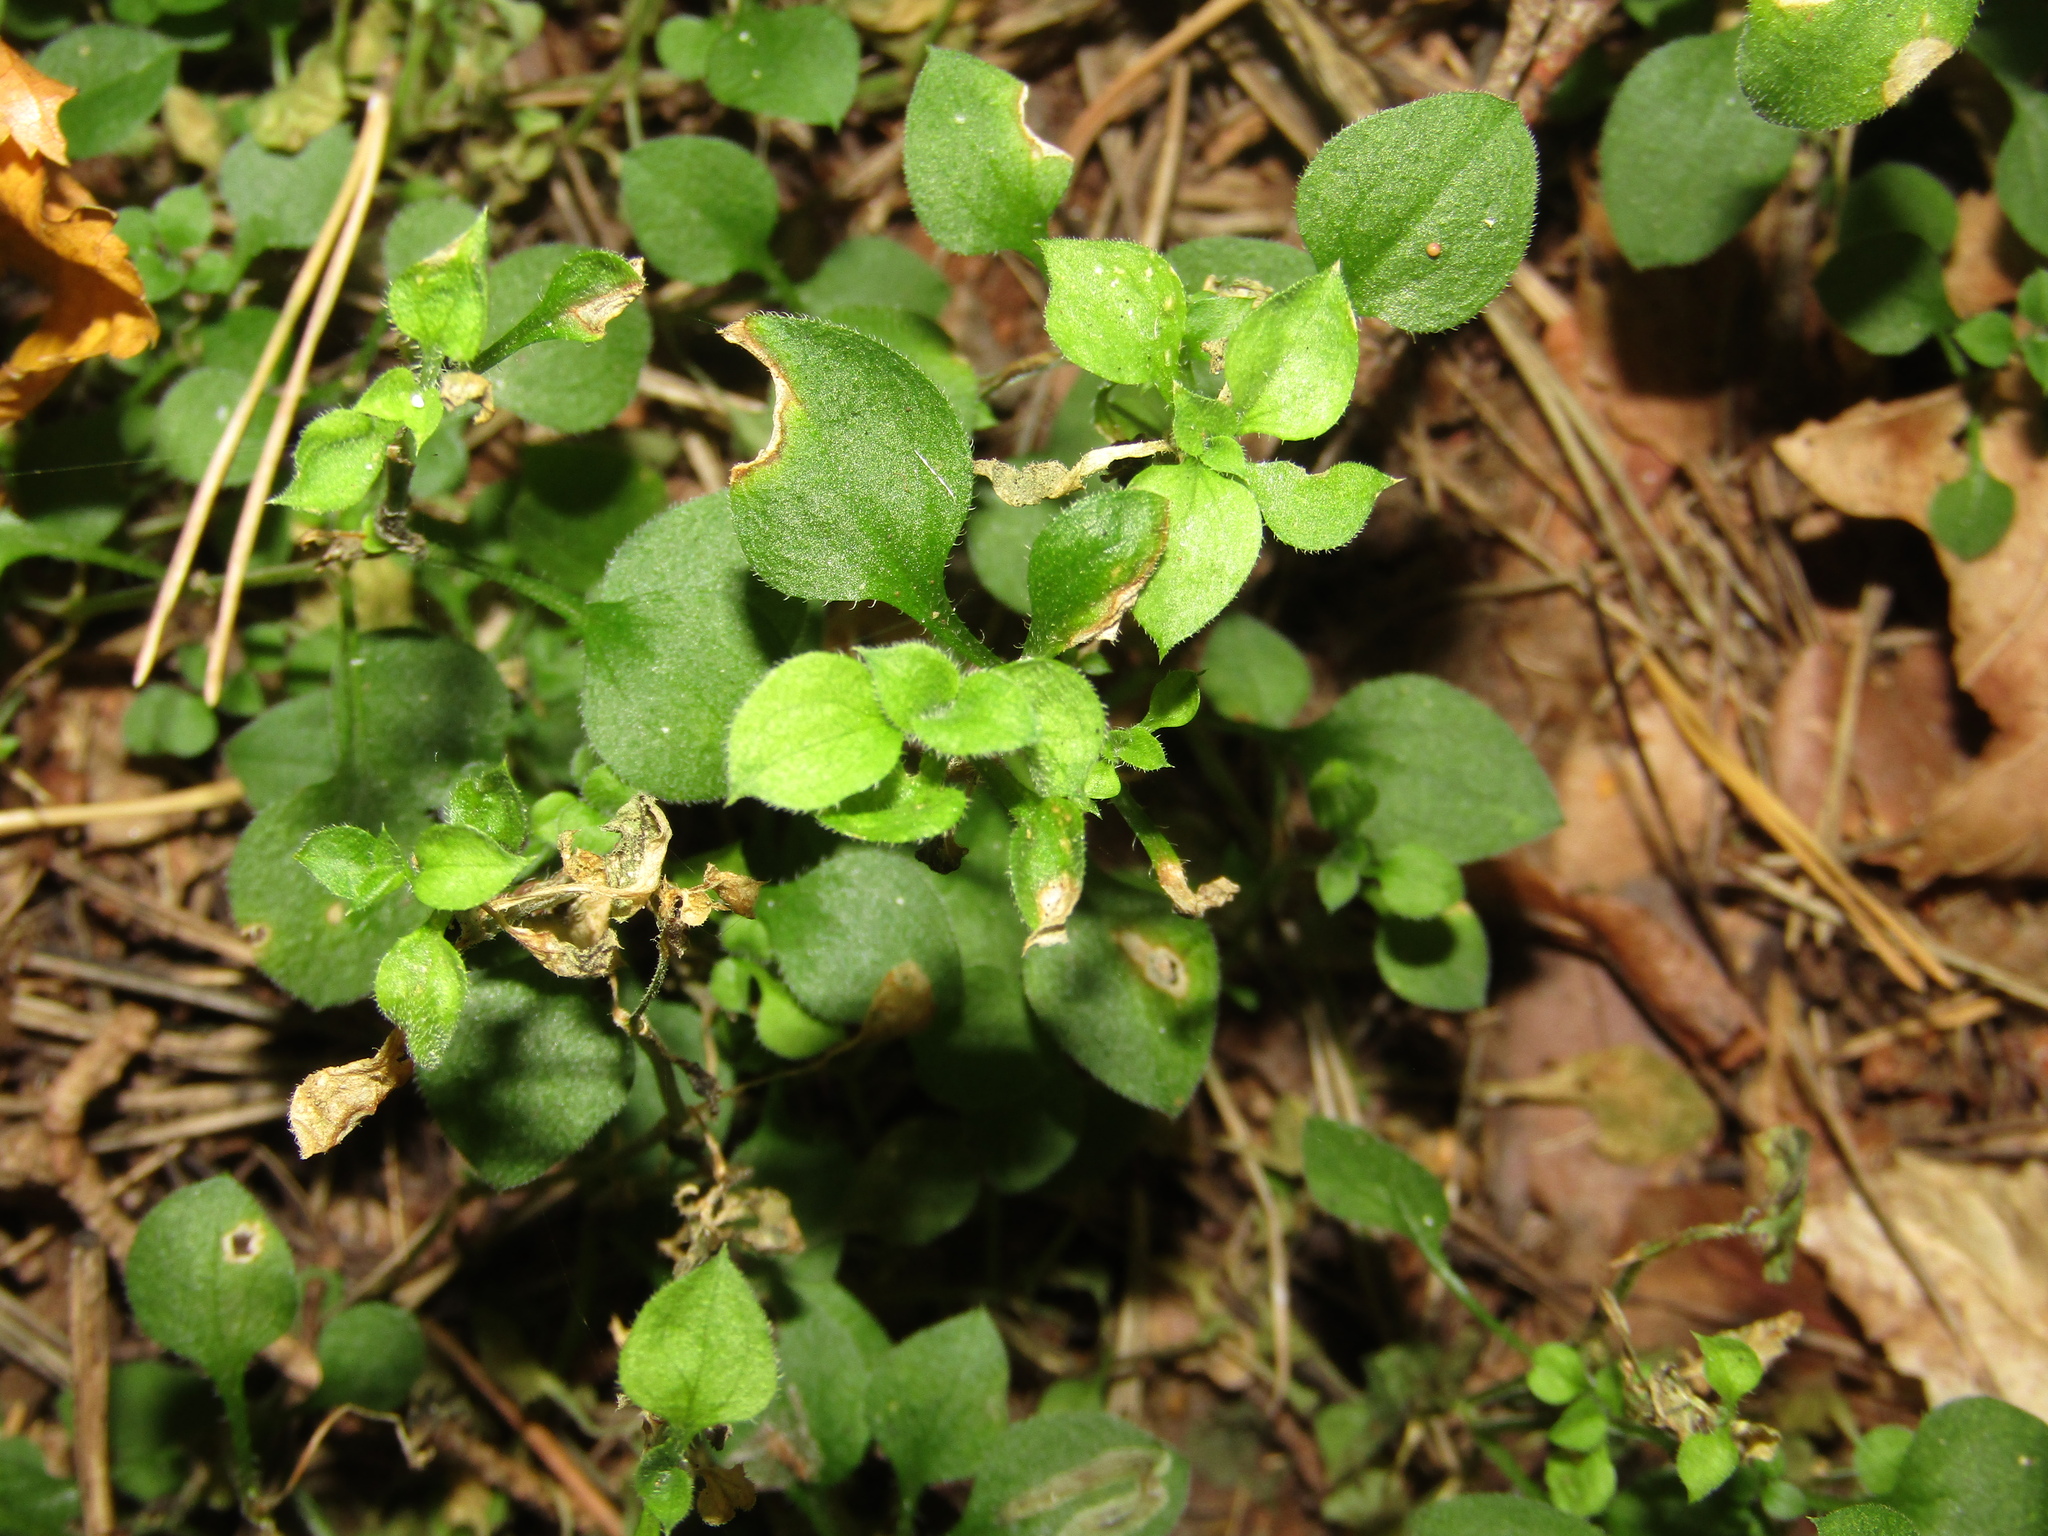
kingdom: Plantae
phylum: Tracheophyta
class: Magnoliopsida
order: Caryophyllales
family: Caryophyllaceae
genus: Moehringia
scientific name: Moehringia trinervia
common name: Three-nerved sandwort
